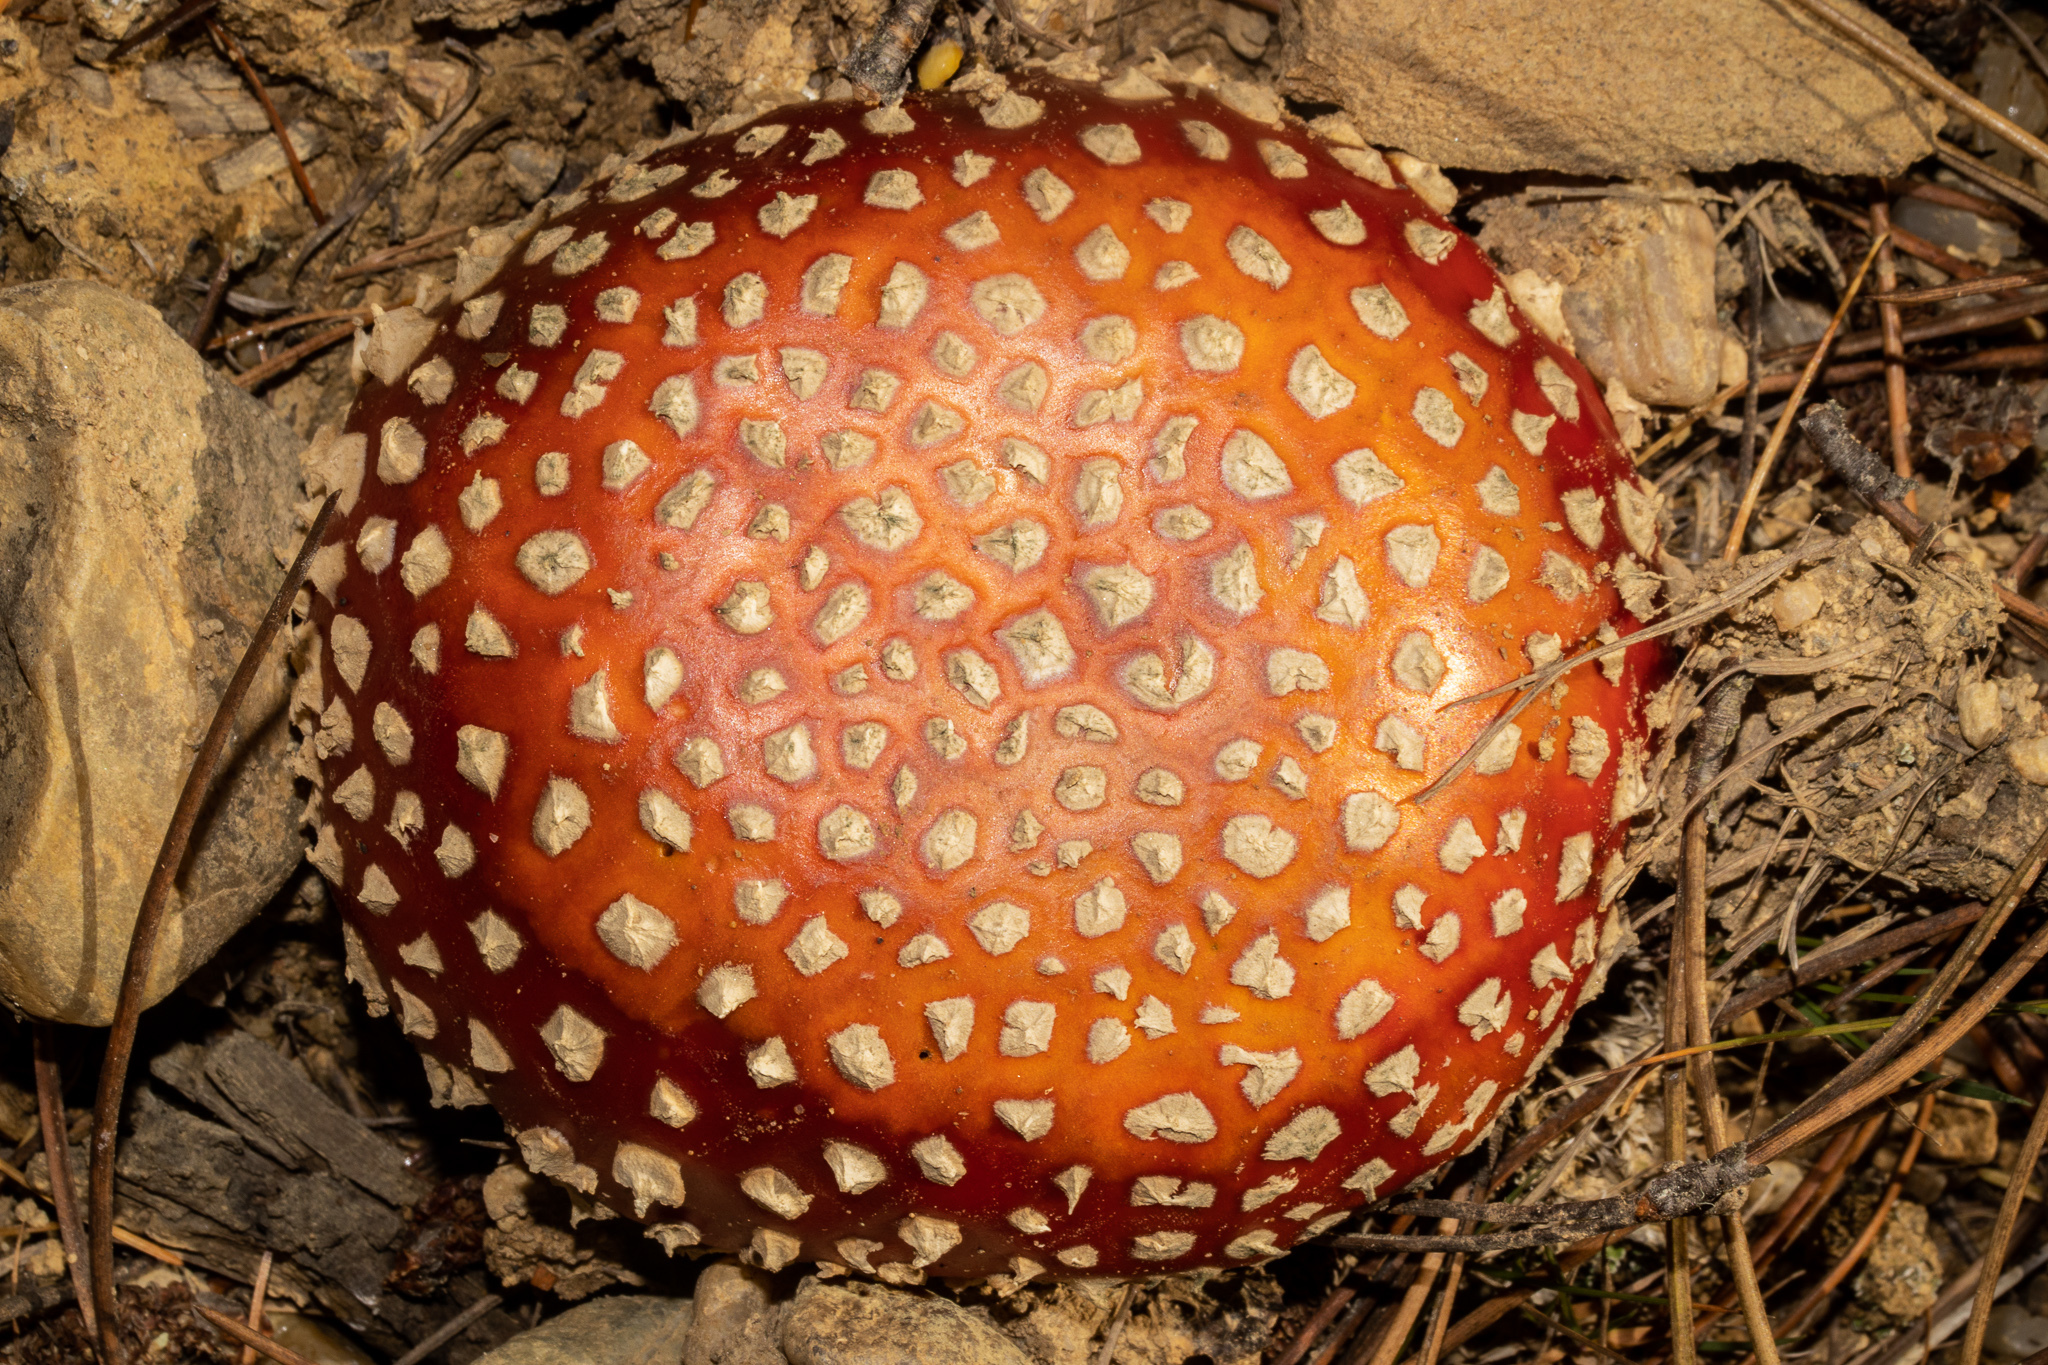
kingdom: Fungi
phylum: Basidiomycota
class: Agaricomycetes
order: Agaricales
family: Amanitaceae
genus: Amanita
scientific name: Amanita muscaria
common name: Fly agaric
